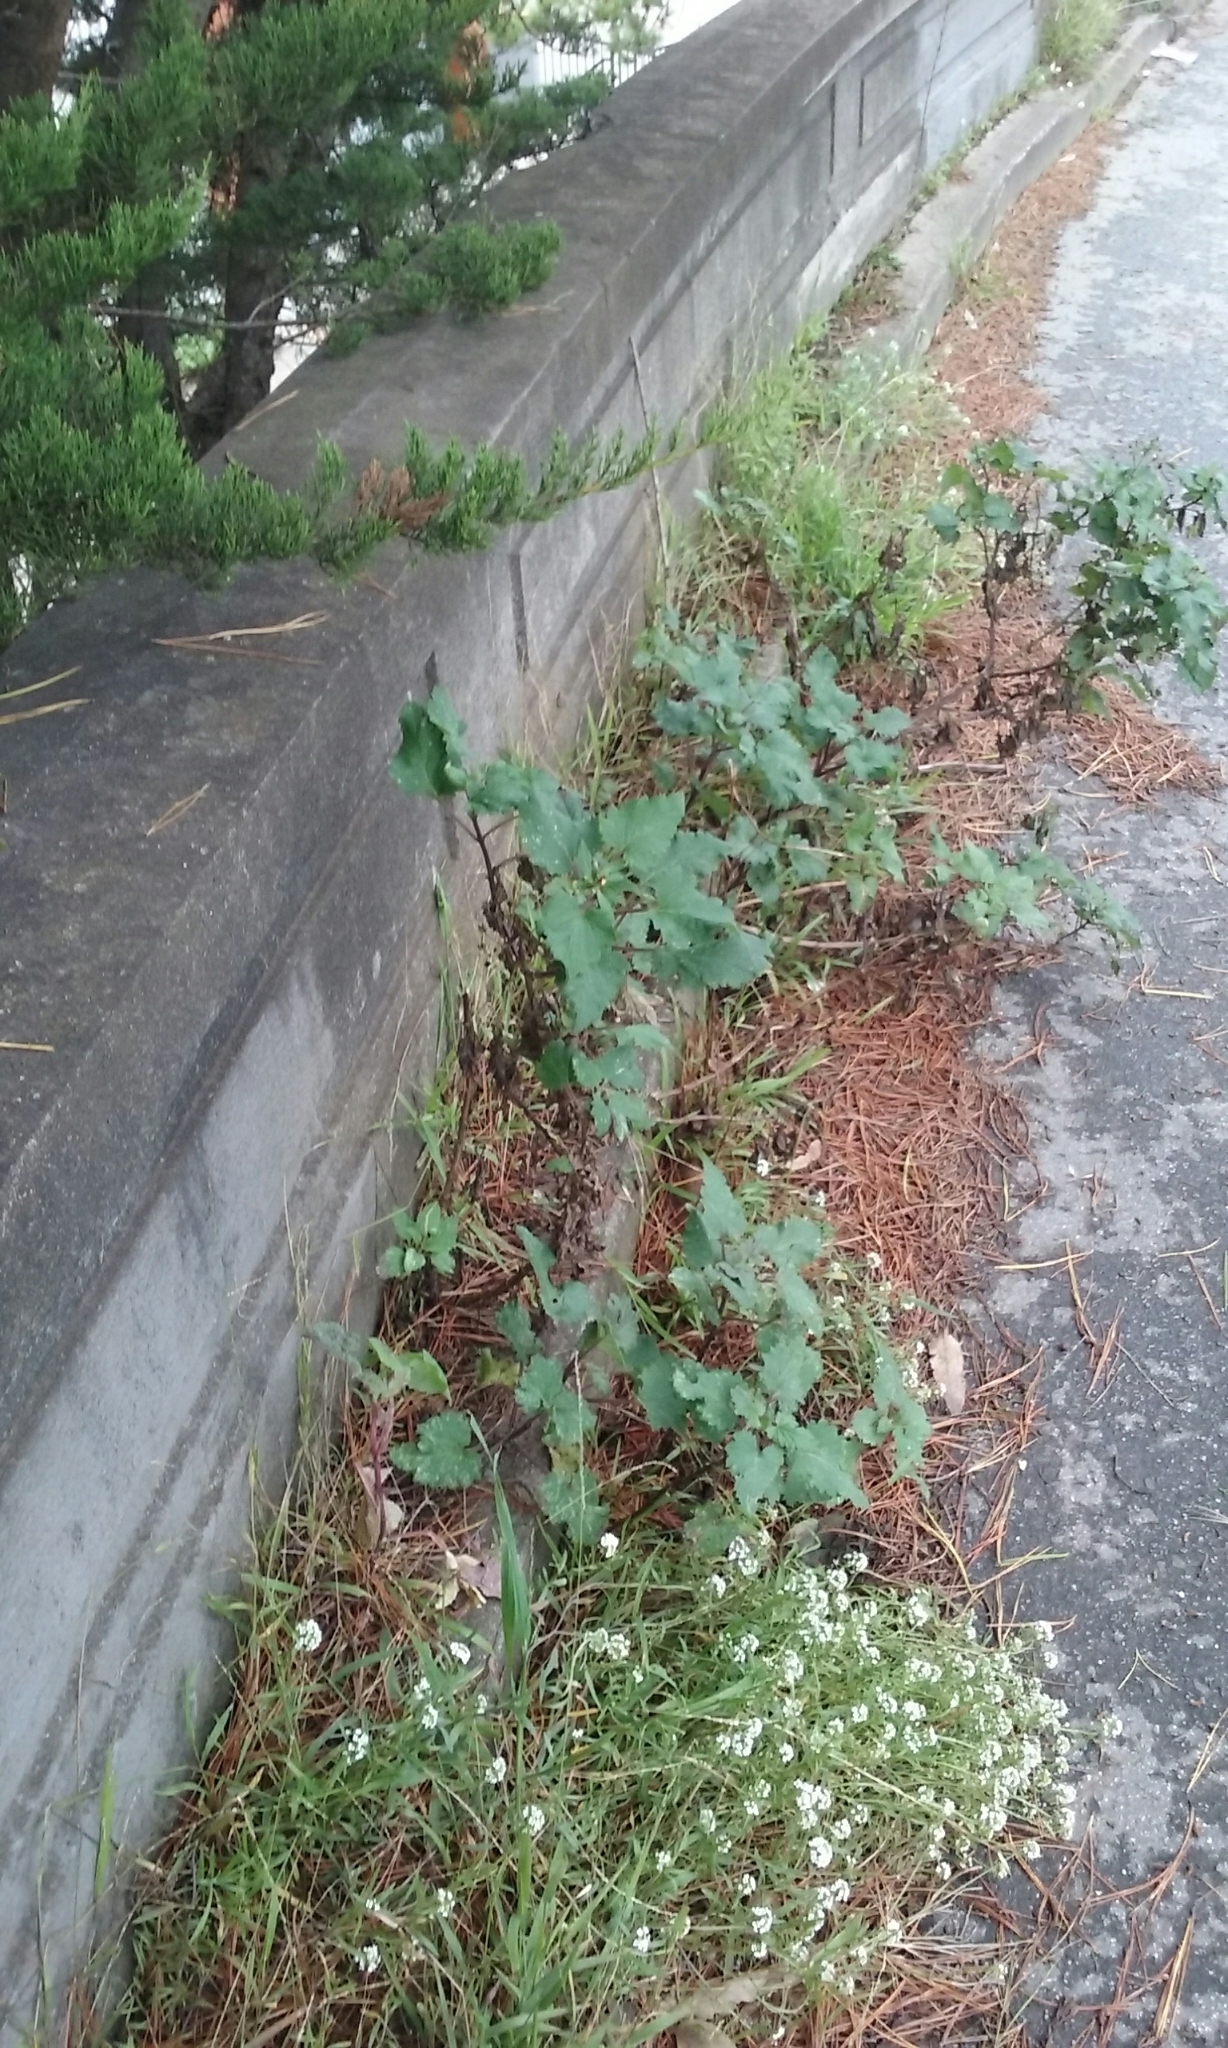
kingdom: Plantae
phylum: Tracheophyta
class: Magnoliopsida
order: Lamiales
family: Scrophulariaceae
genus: Scrophularia
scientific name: Scrophularia californica
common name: California figwort
